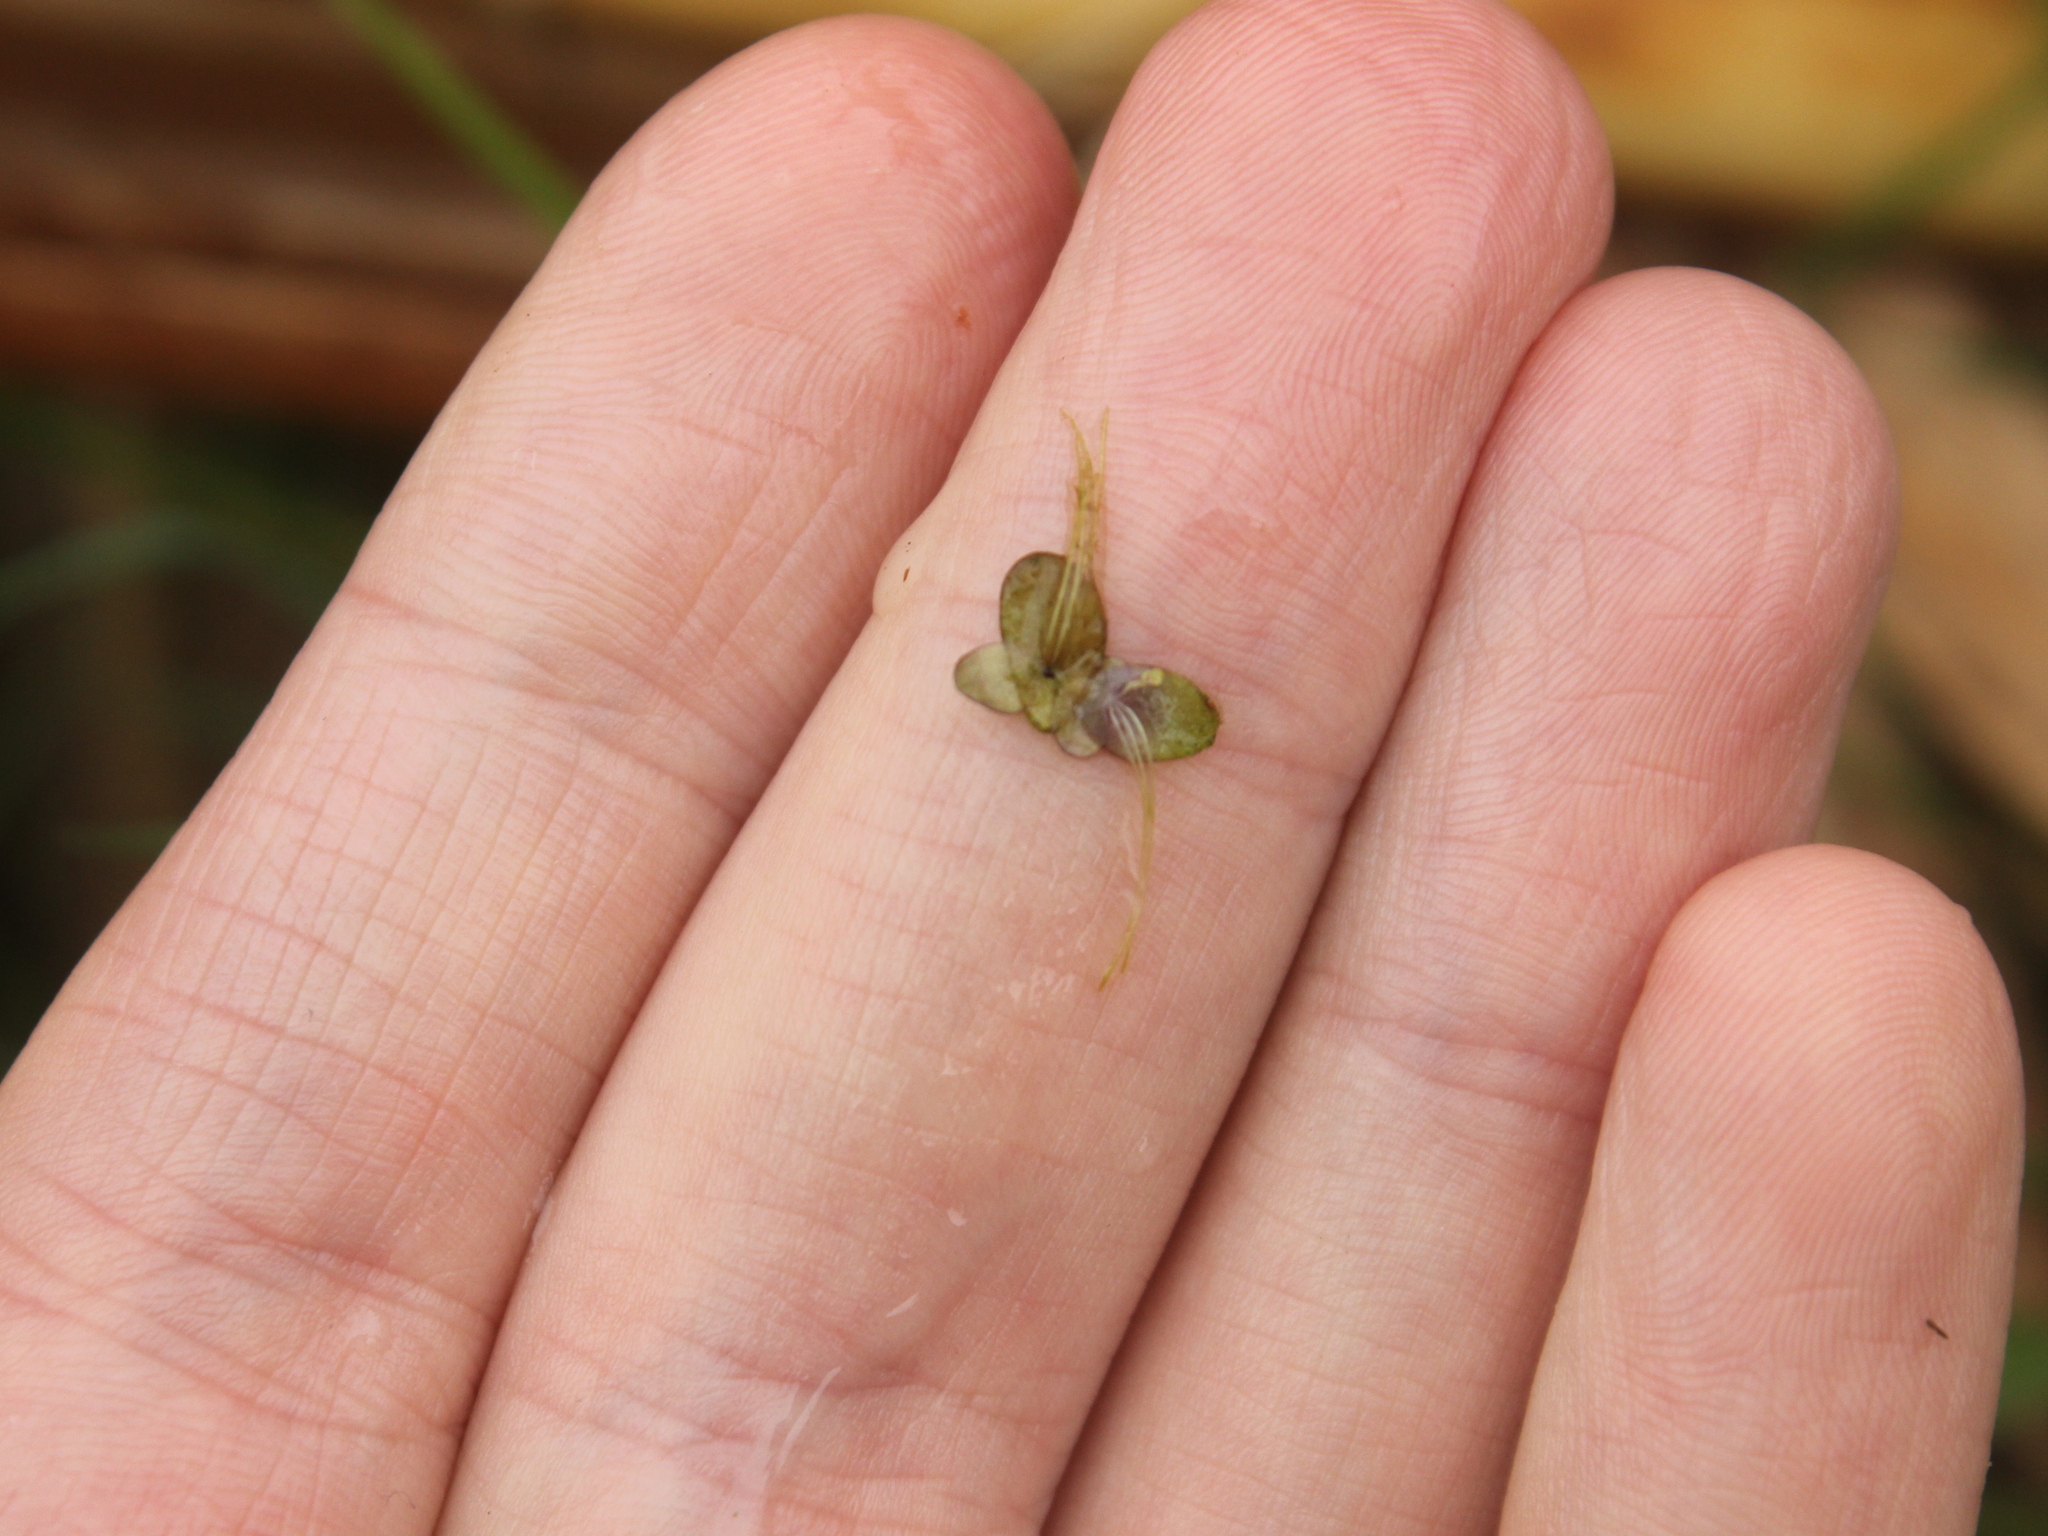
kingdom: Plantae
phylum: Tracheophyta
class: Liliopsida
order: Alismatales
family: Araceae
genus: Spirodela
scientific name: Spirodela punctata
